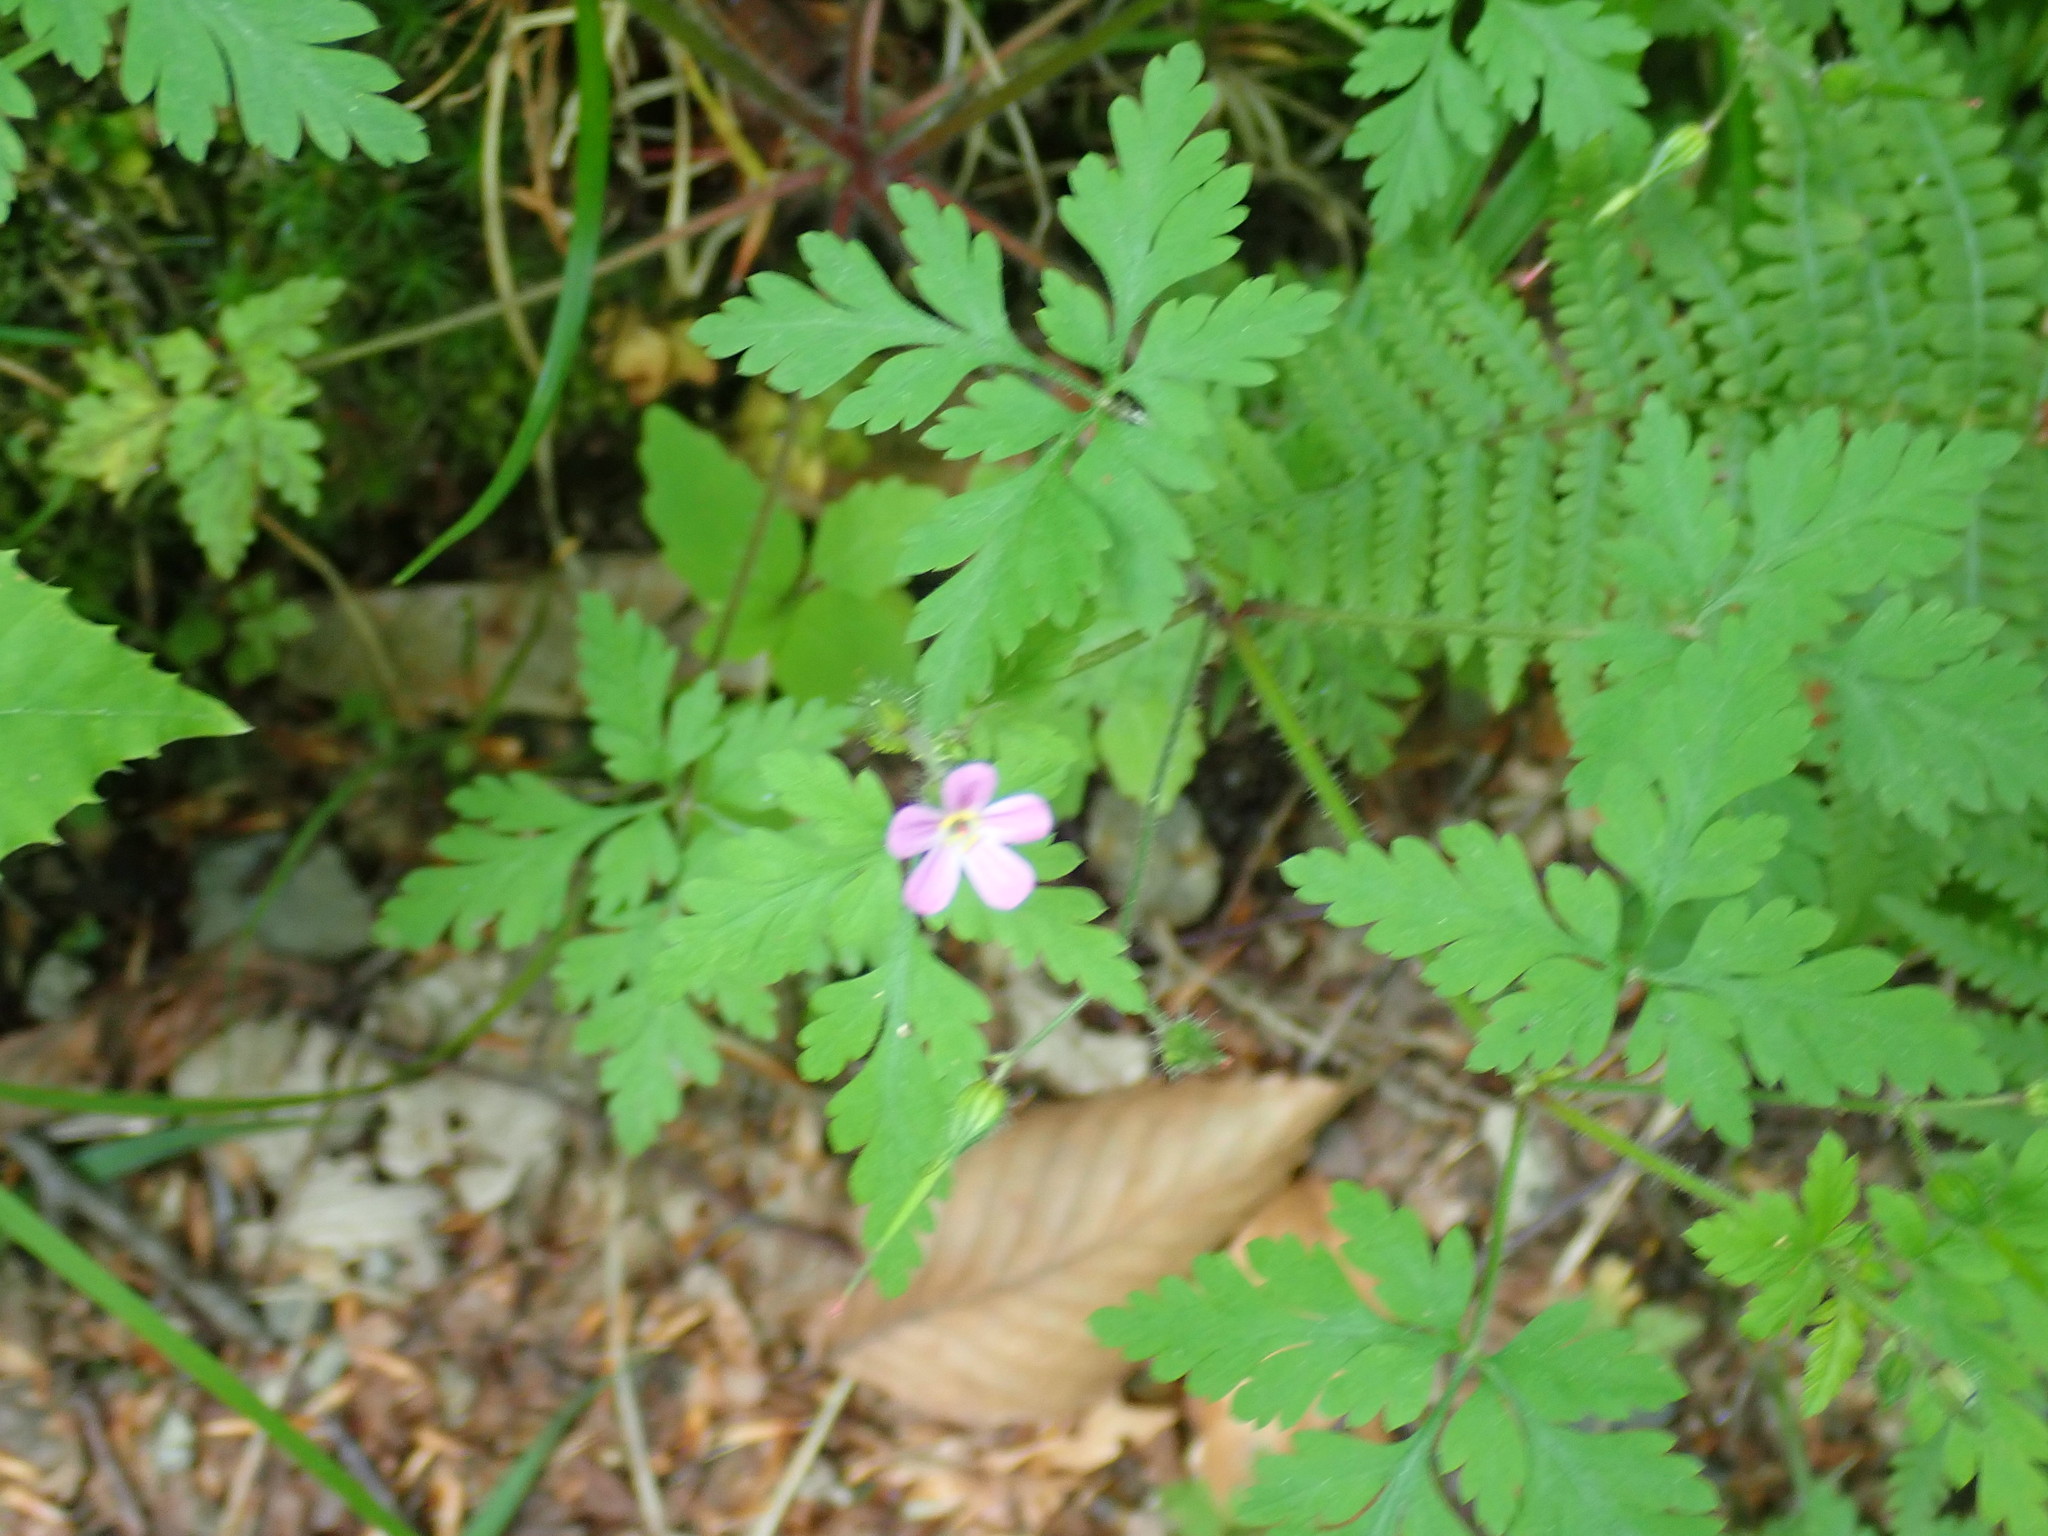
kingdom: Plantae
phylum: Tracheophyta
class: Magnoliopsida
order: Geraniales
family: Geraniaceae
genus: Geranium
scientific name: Geranium robertianum
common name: Herb-robert
